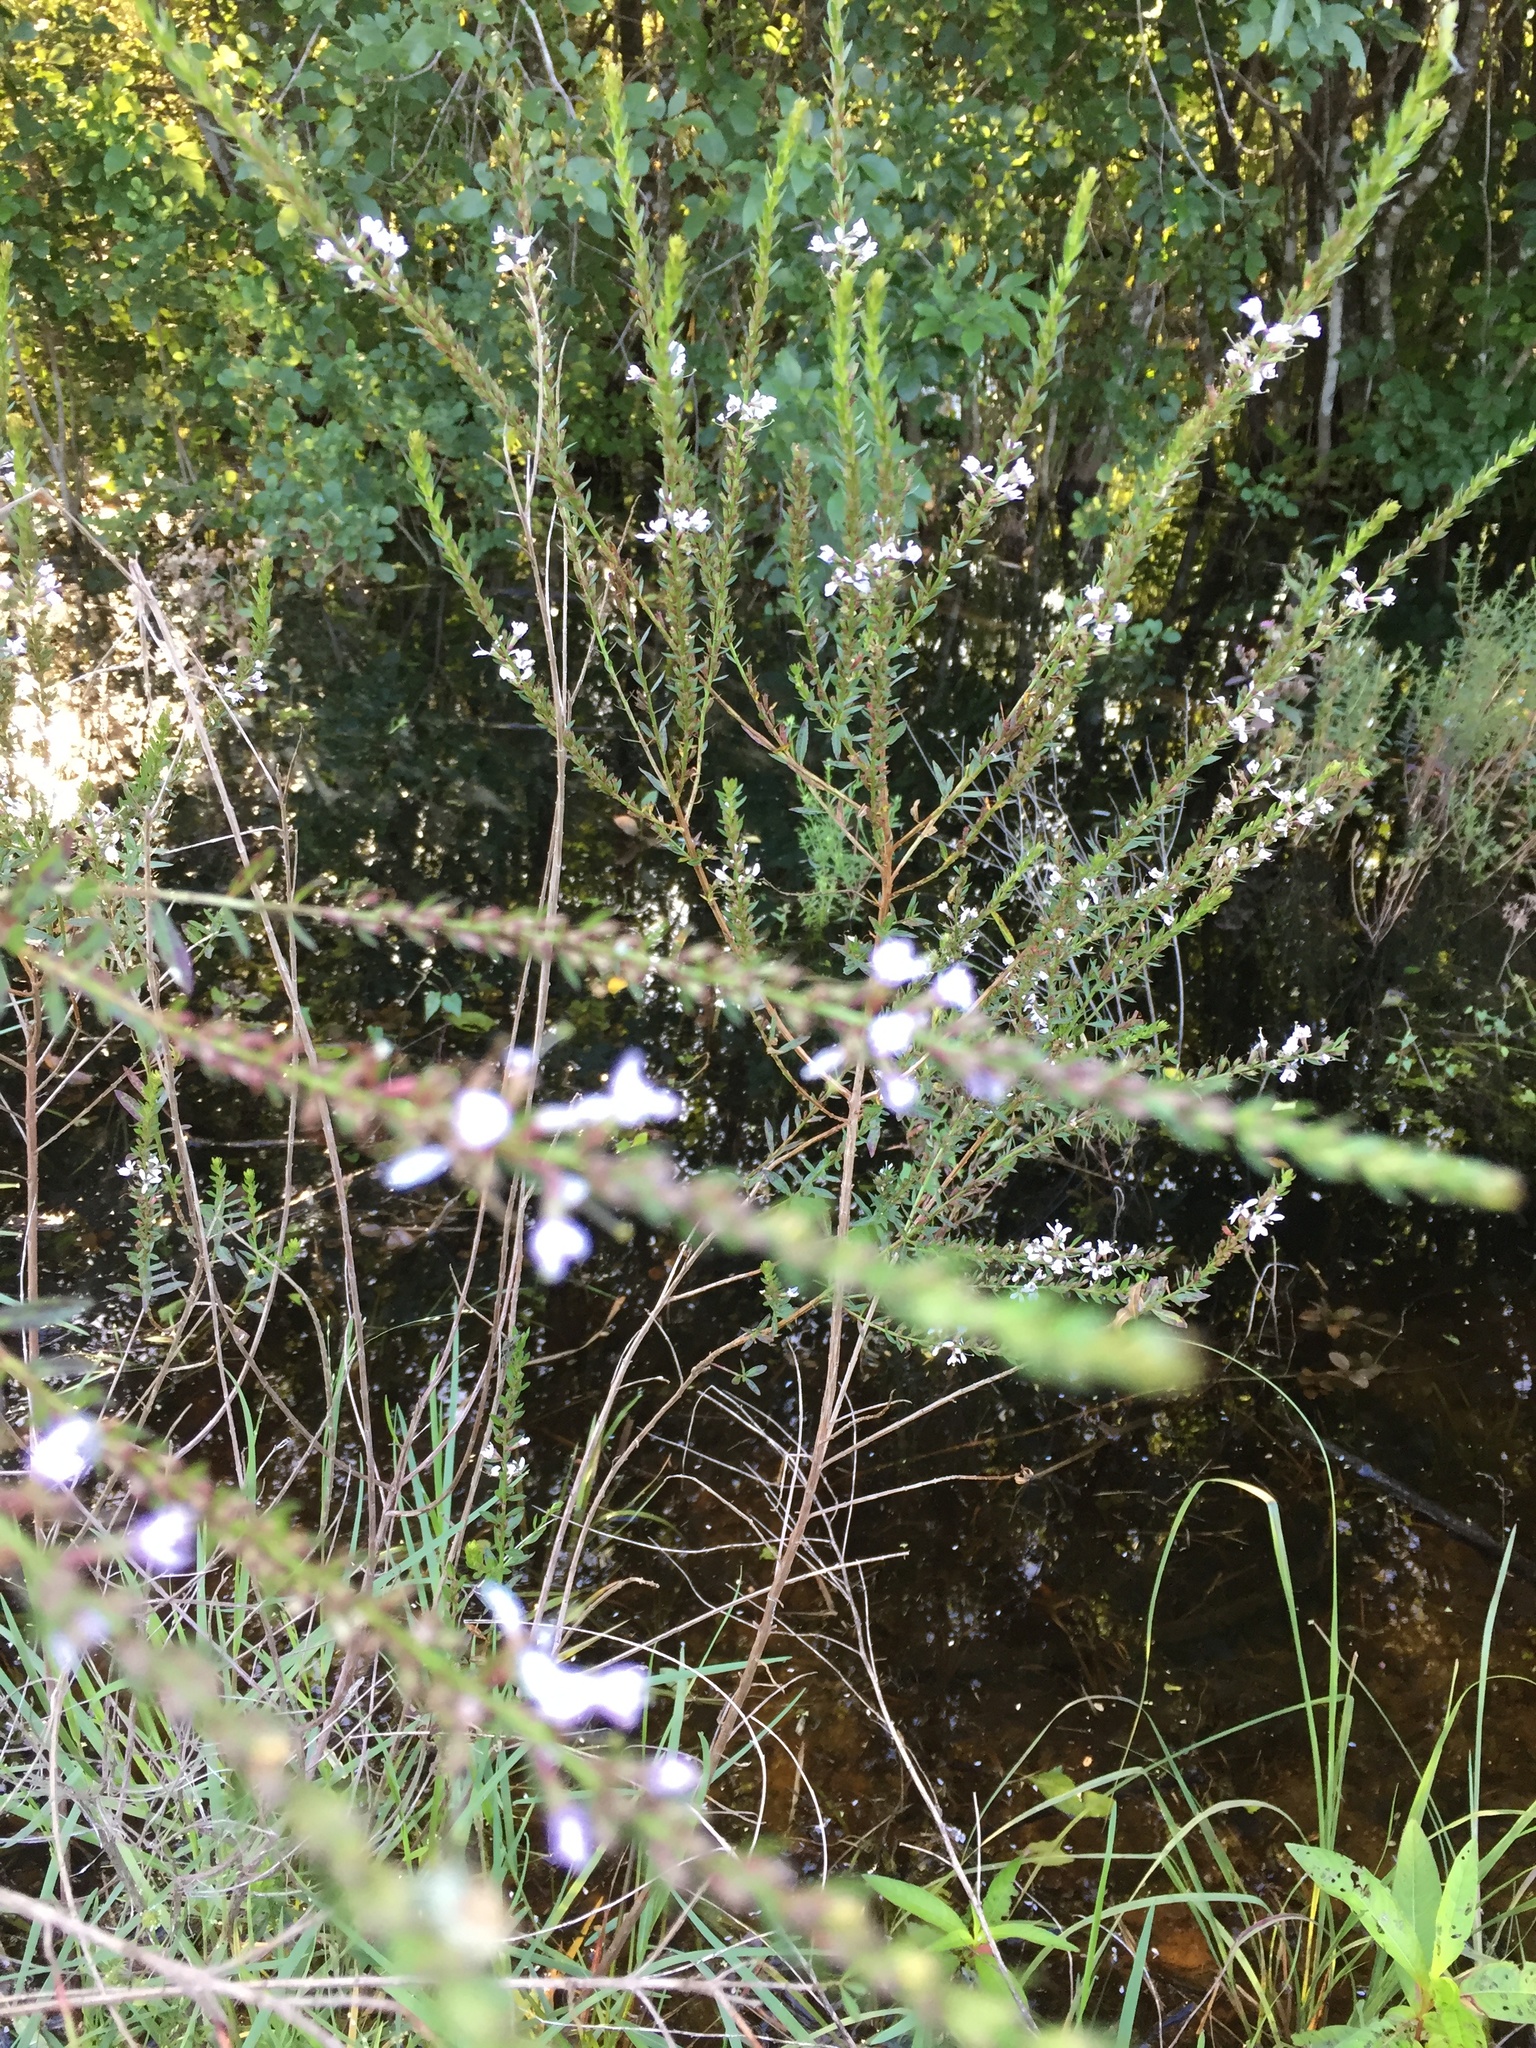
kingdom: Plantae
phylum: Tracheophyta
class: Magnoliopsida
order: Myrtales
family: Lythraceae
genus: Lythrum
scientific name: Lythrum lineare
